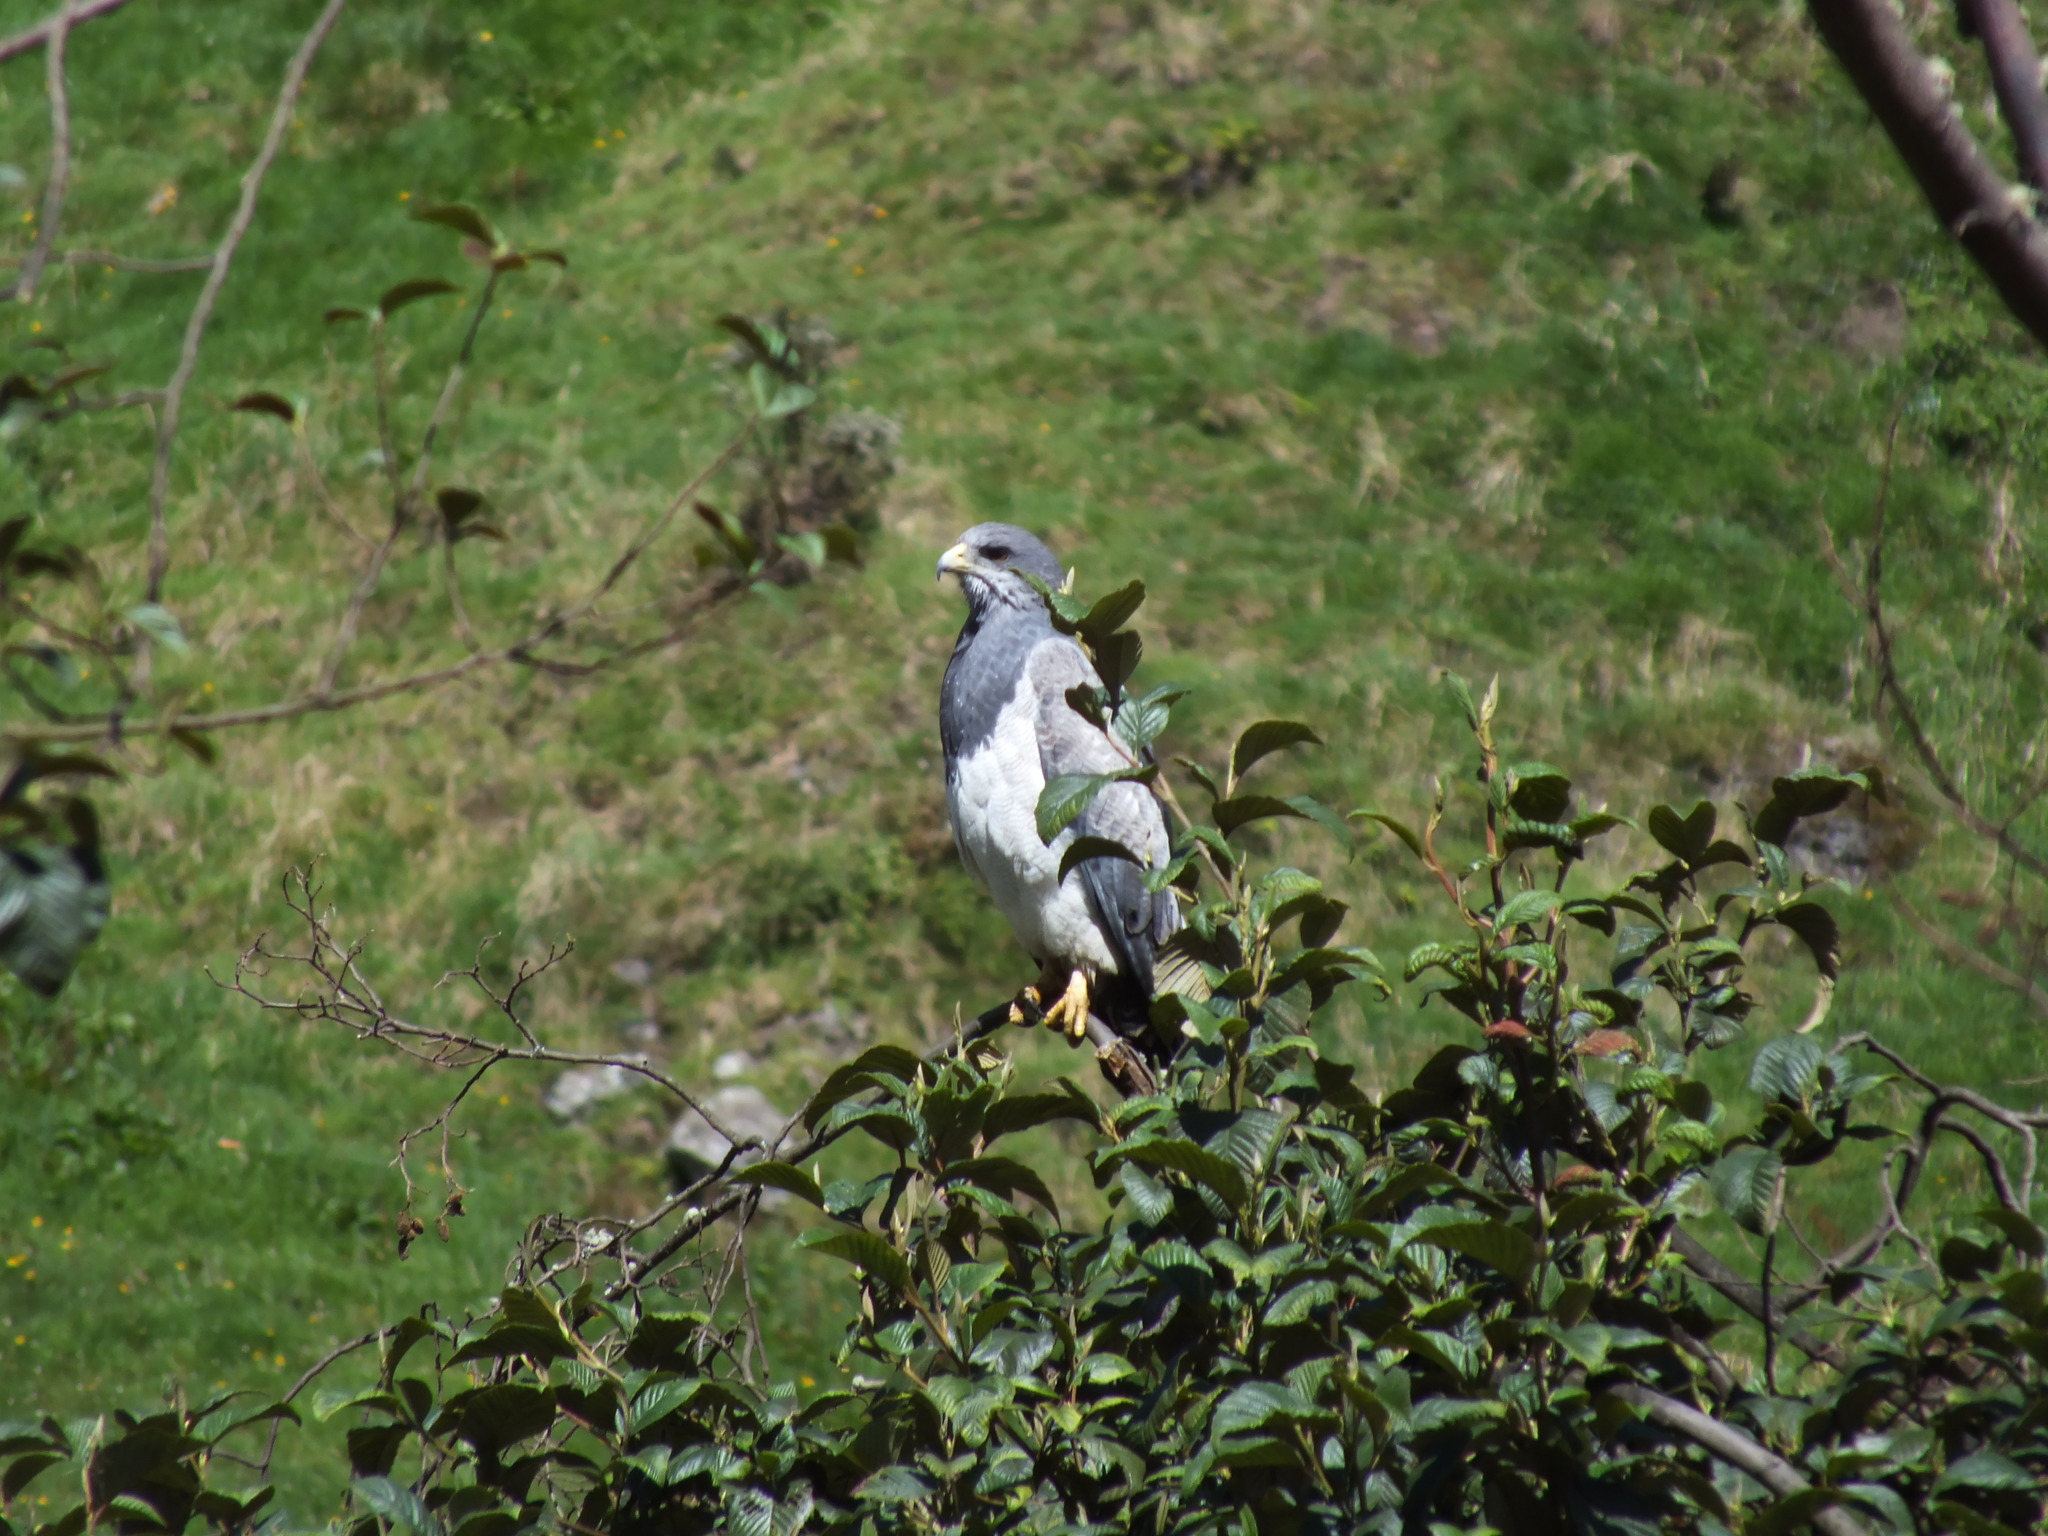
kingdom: Animalia
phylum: Chordata
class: Aves
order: Accipitriformes
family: Accipitridae
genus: Geranoaetus
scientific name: Geranoaetus melanoleucus
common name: Black-chested buzzard-eagle
